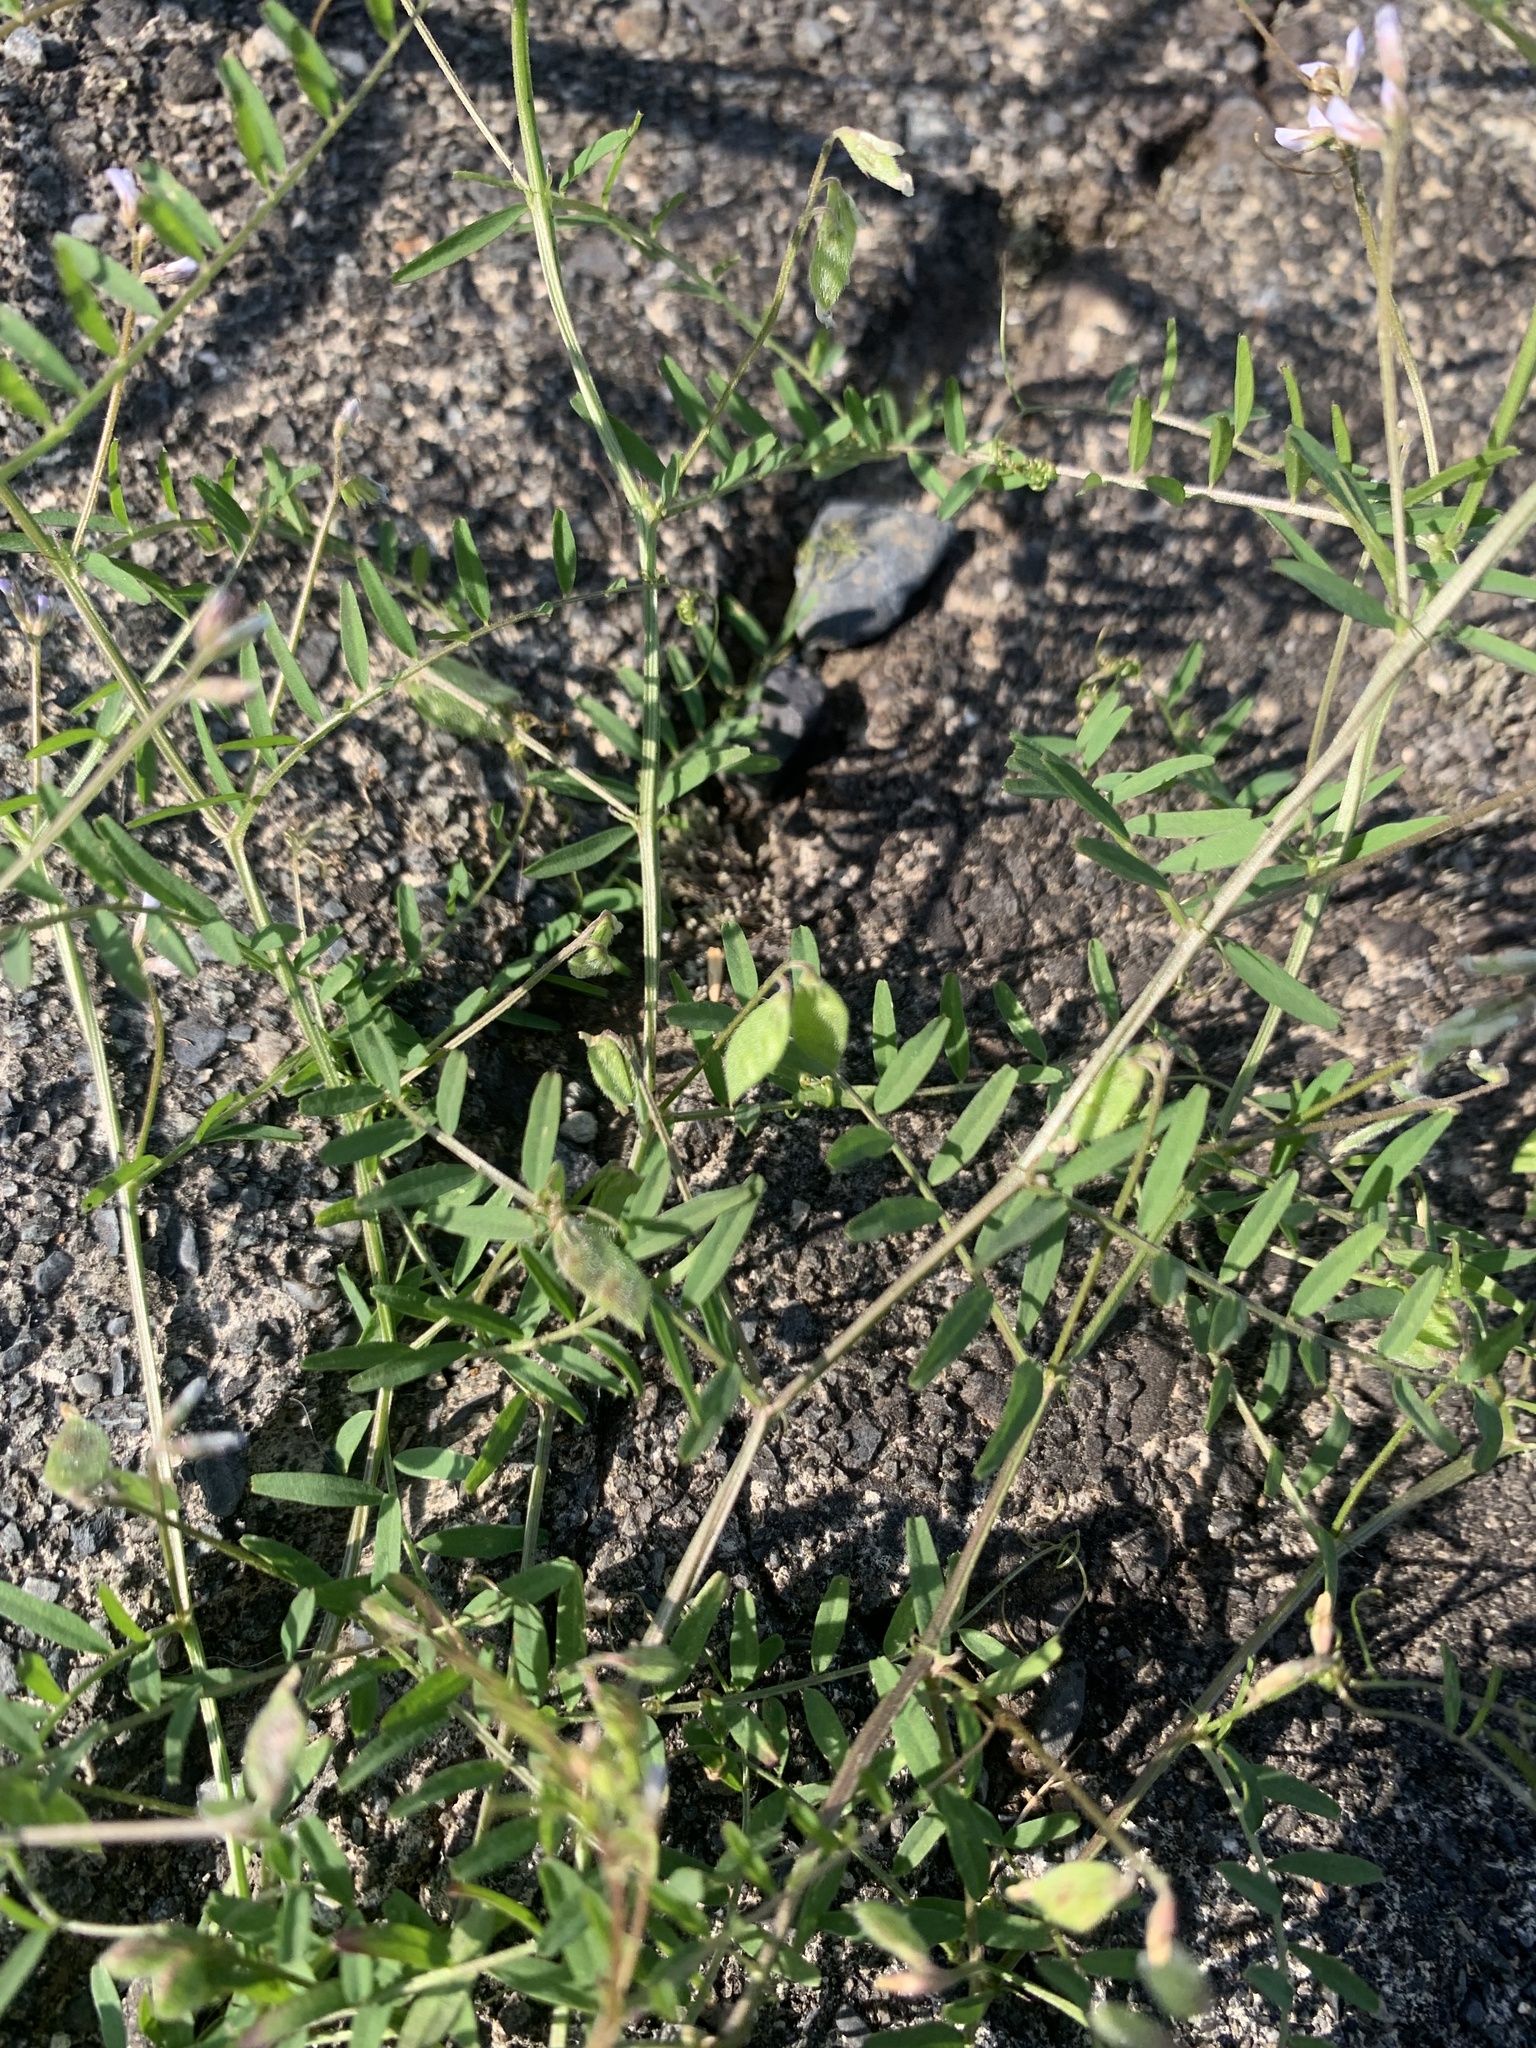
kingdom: Plantae
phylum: Tracheophyta
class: Magnoliopsida
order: Fabales
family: Fabaceae
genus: Vicia
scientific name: Vicia hirsuta
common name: Tiny vetch
